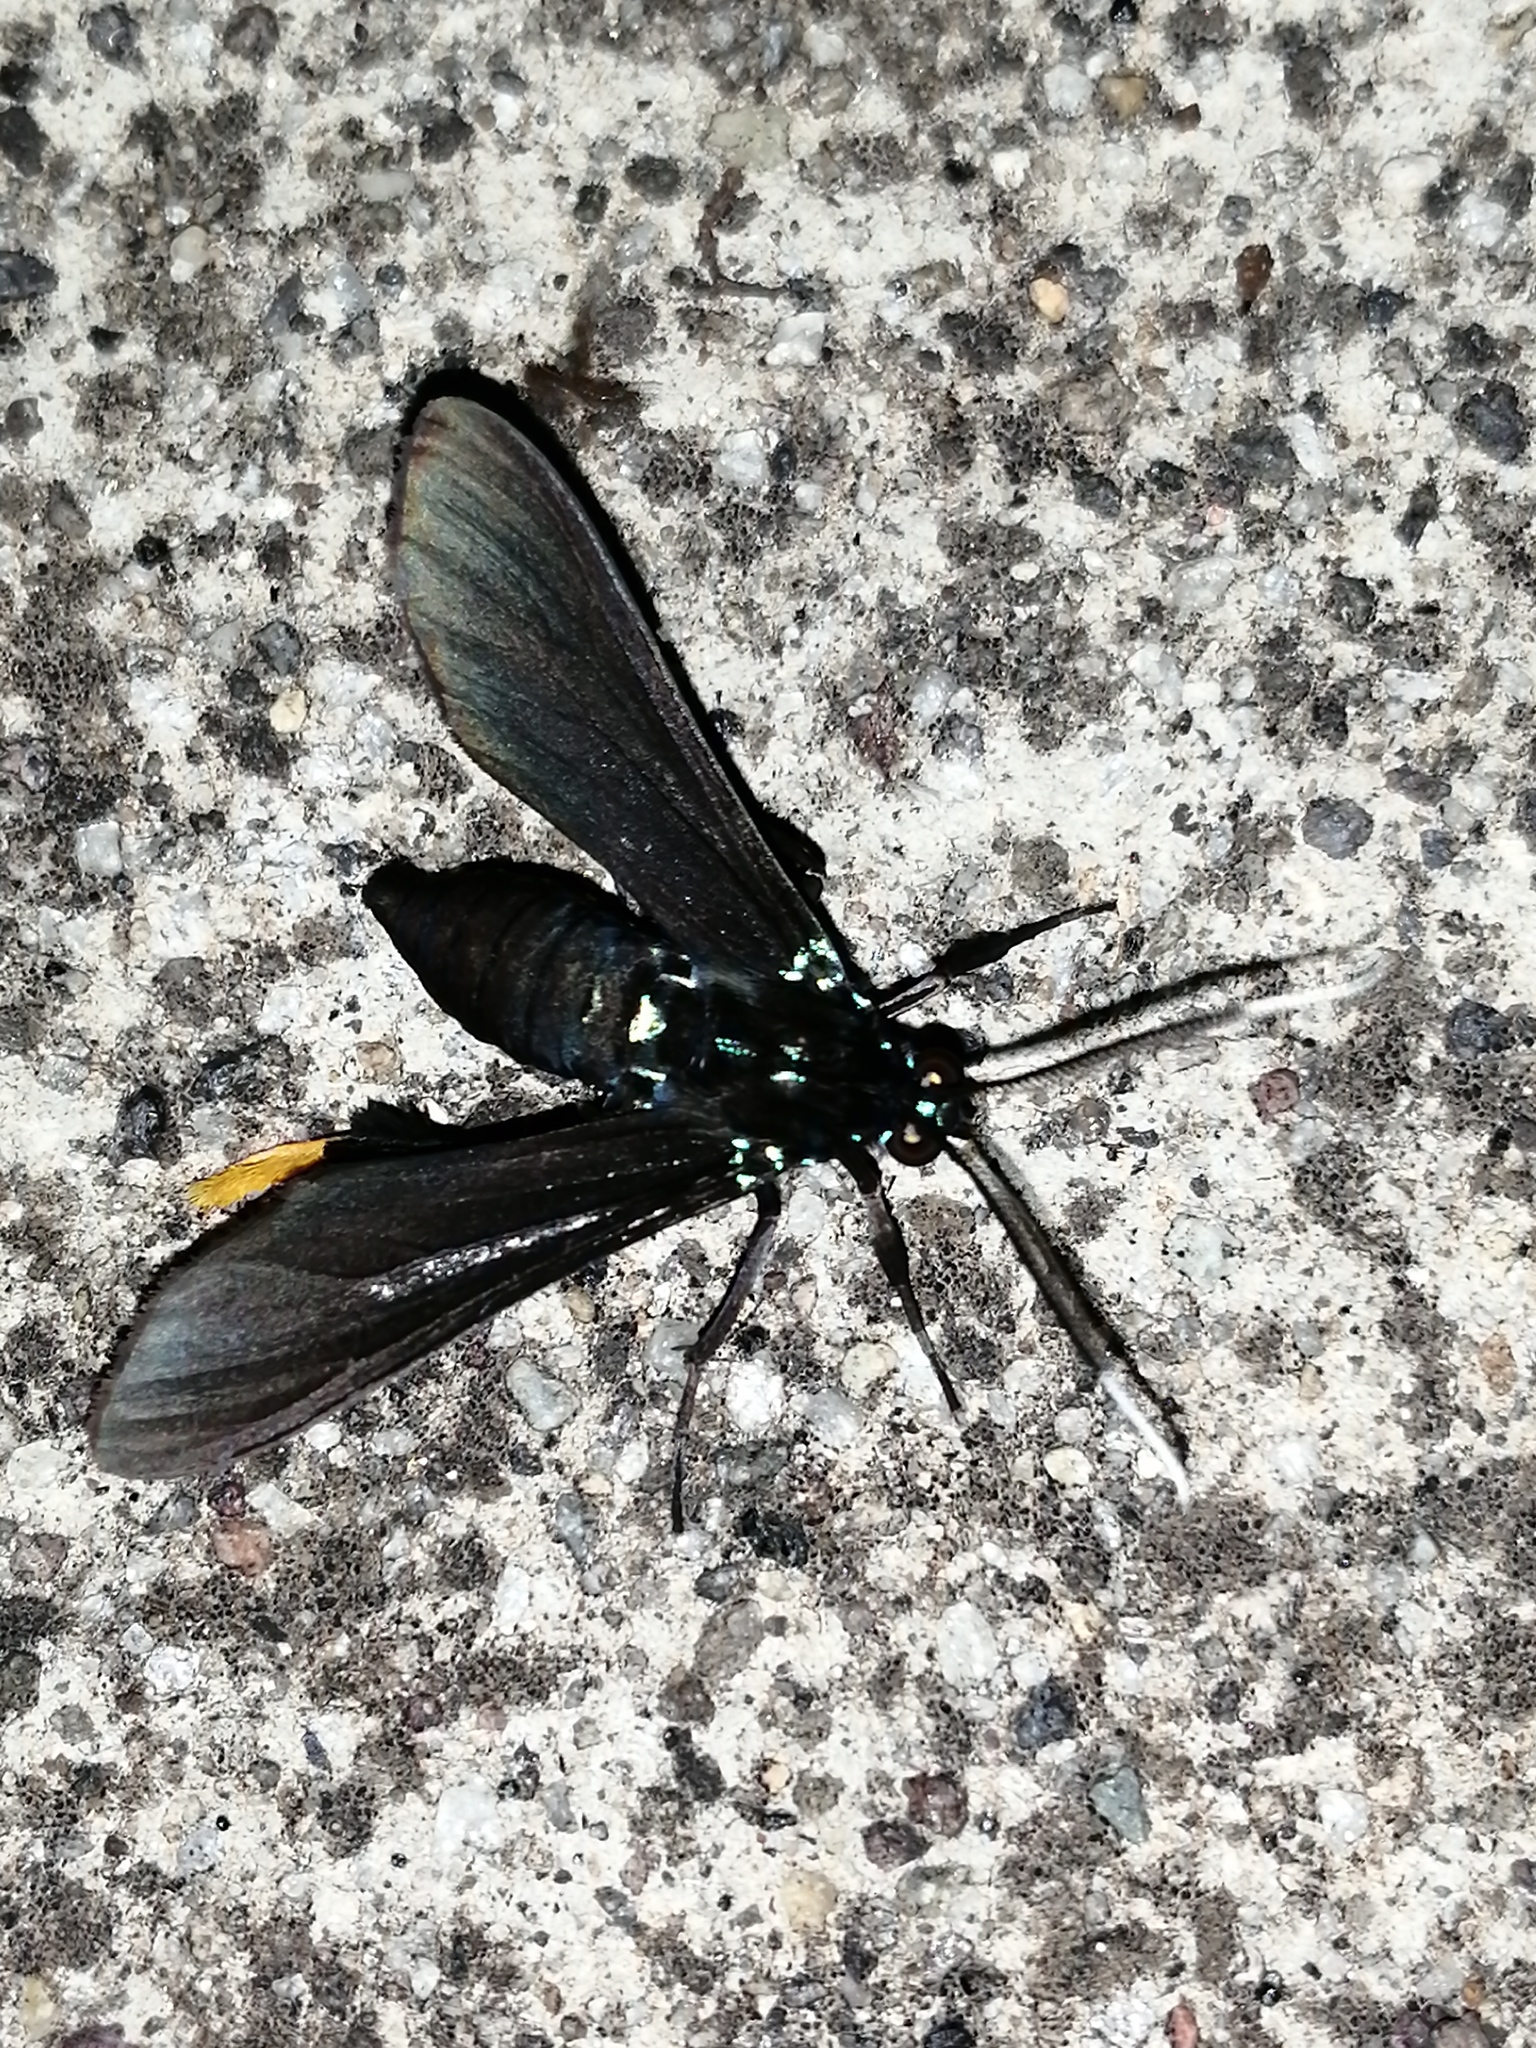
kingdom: Animalia
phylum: Arthropoda
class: Insecta
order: Lepidoptera
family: Erebidae
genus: Poliopastea
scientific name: Poliopastea auripes
